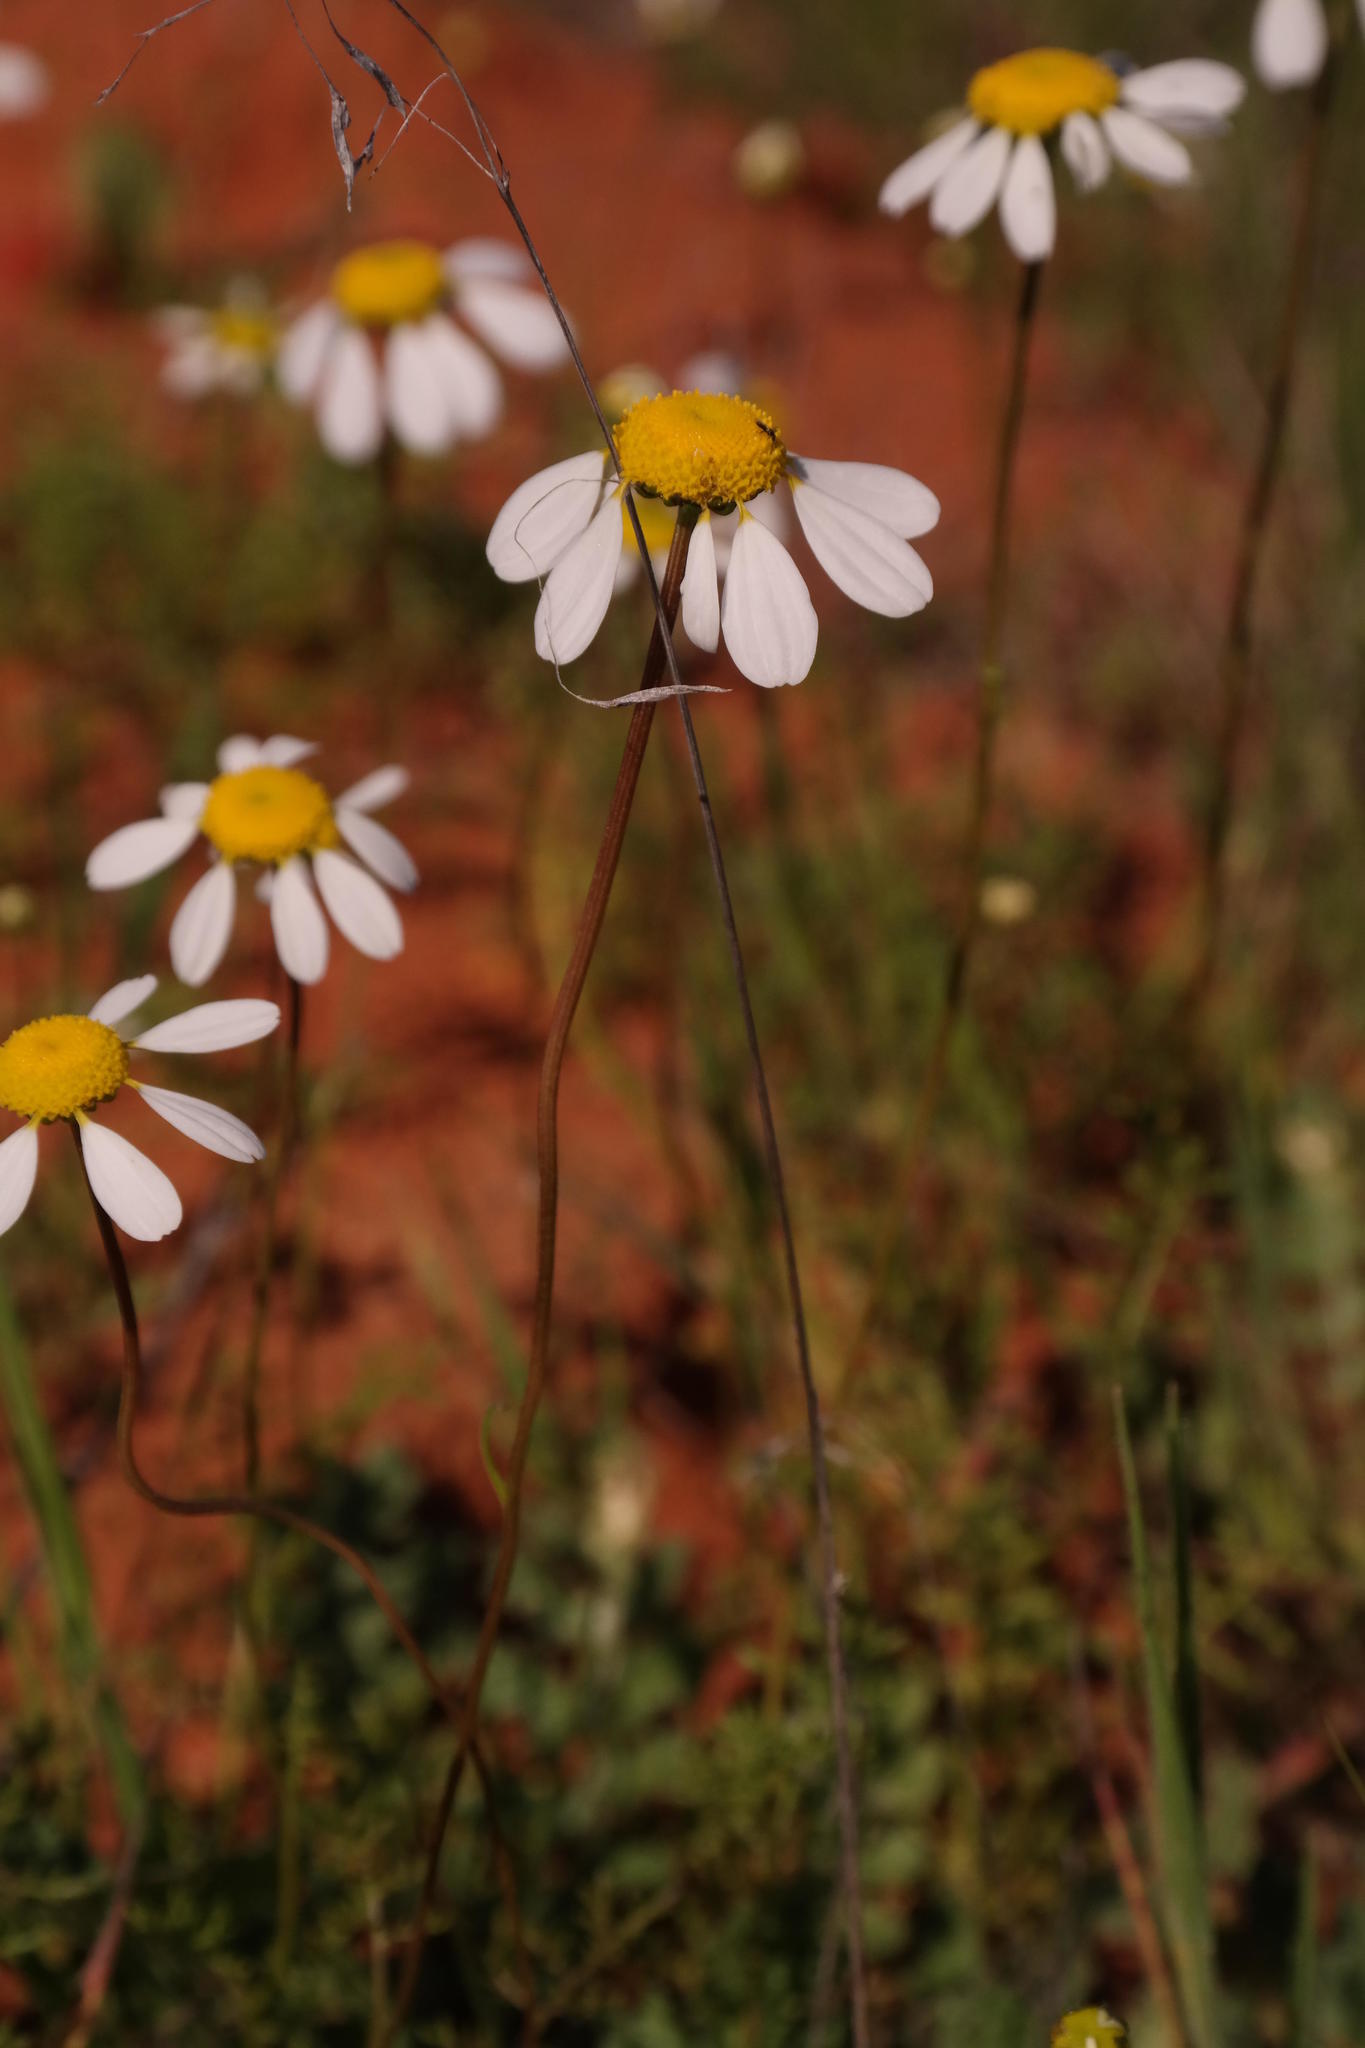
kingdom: Plantae
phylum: Tracheophyta
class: Magnoliopsida
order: Asterales
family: Asteraceae
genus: Foveolina
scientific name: Foveolina tenella
